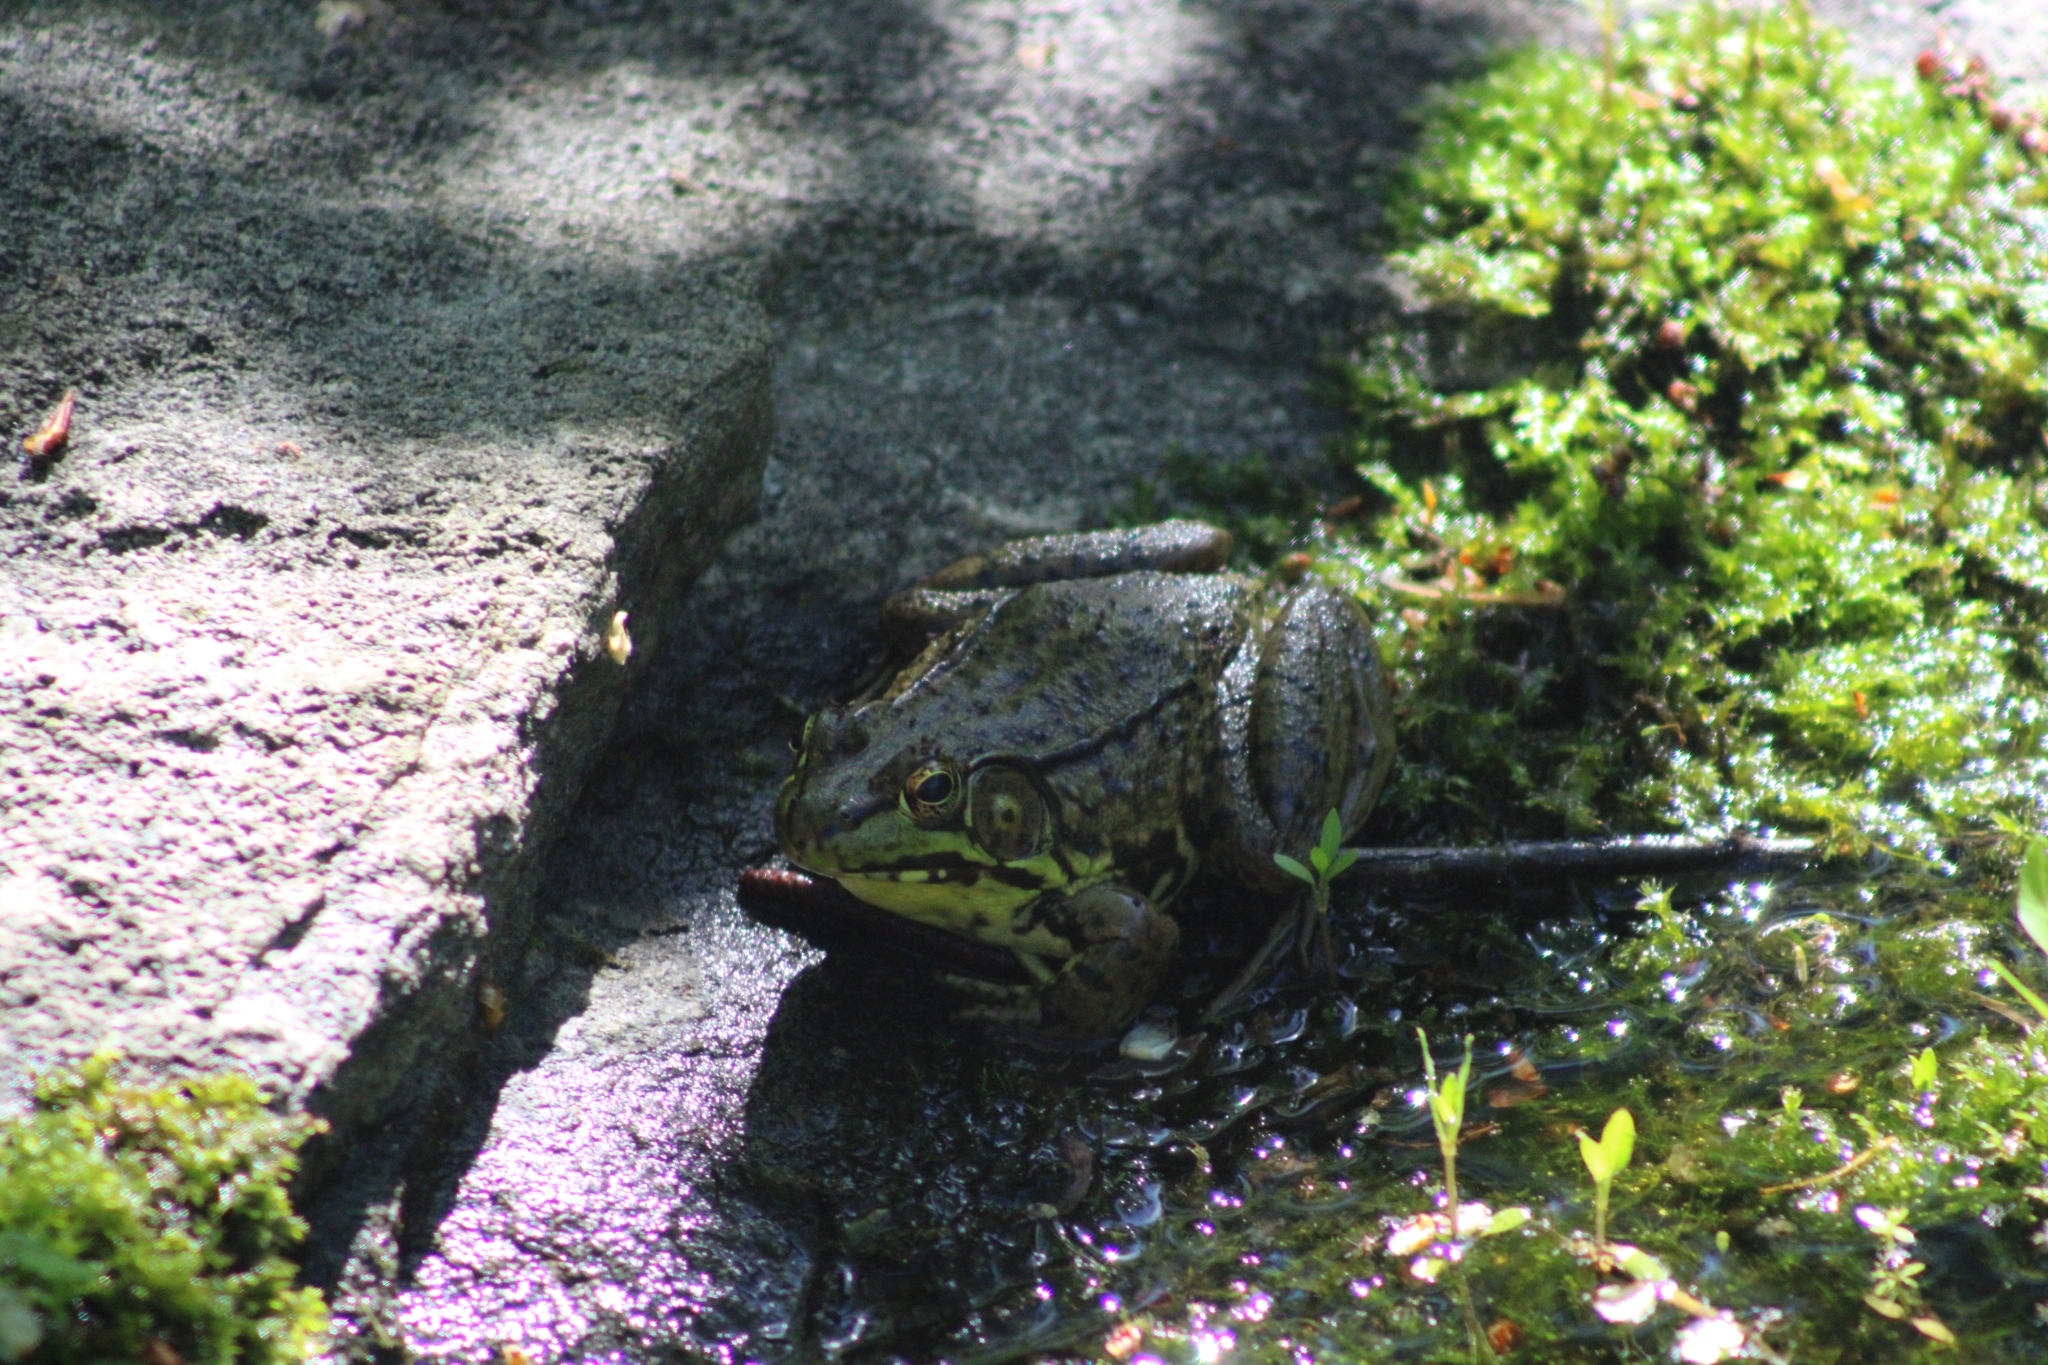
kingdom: Animalia
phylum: Chordata
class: Amphibia
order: Anura
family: Ranidae
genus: Lithobates
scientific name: Lithobates clamitans
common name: Green frog
